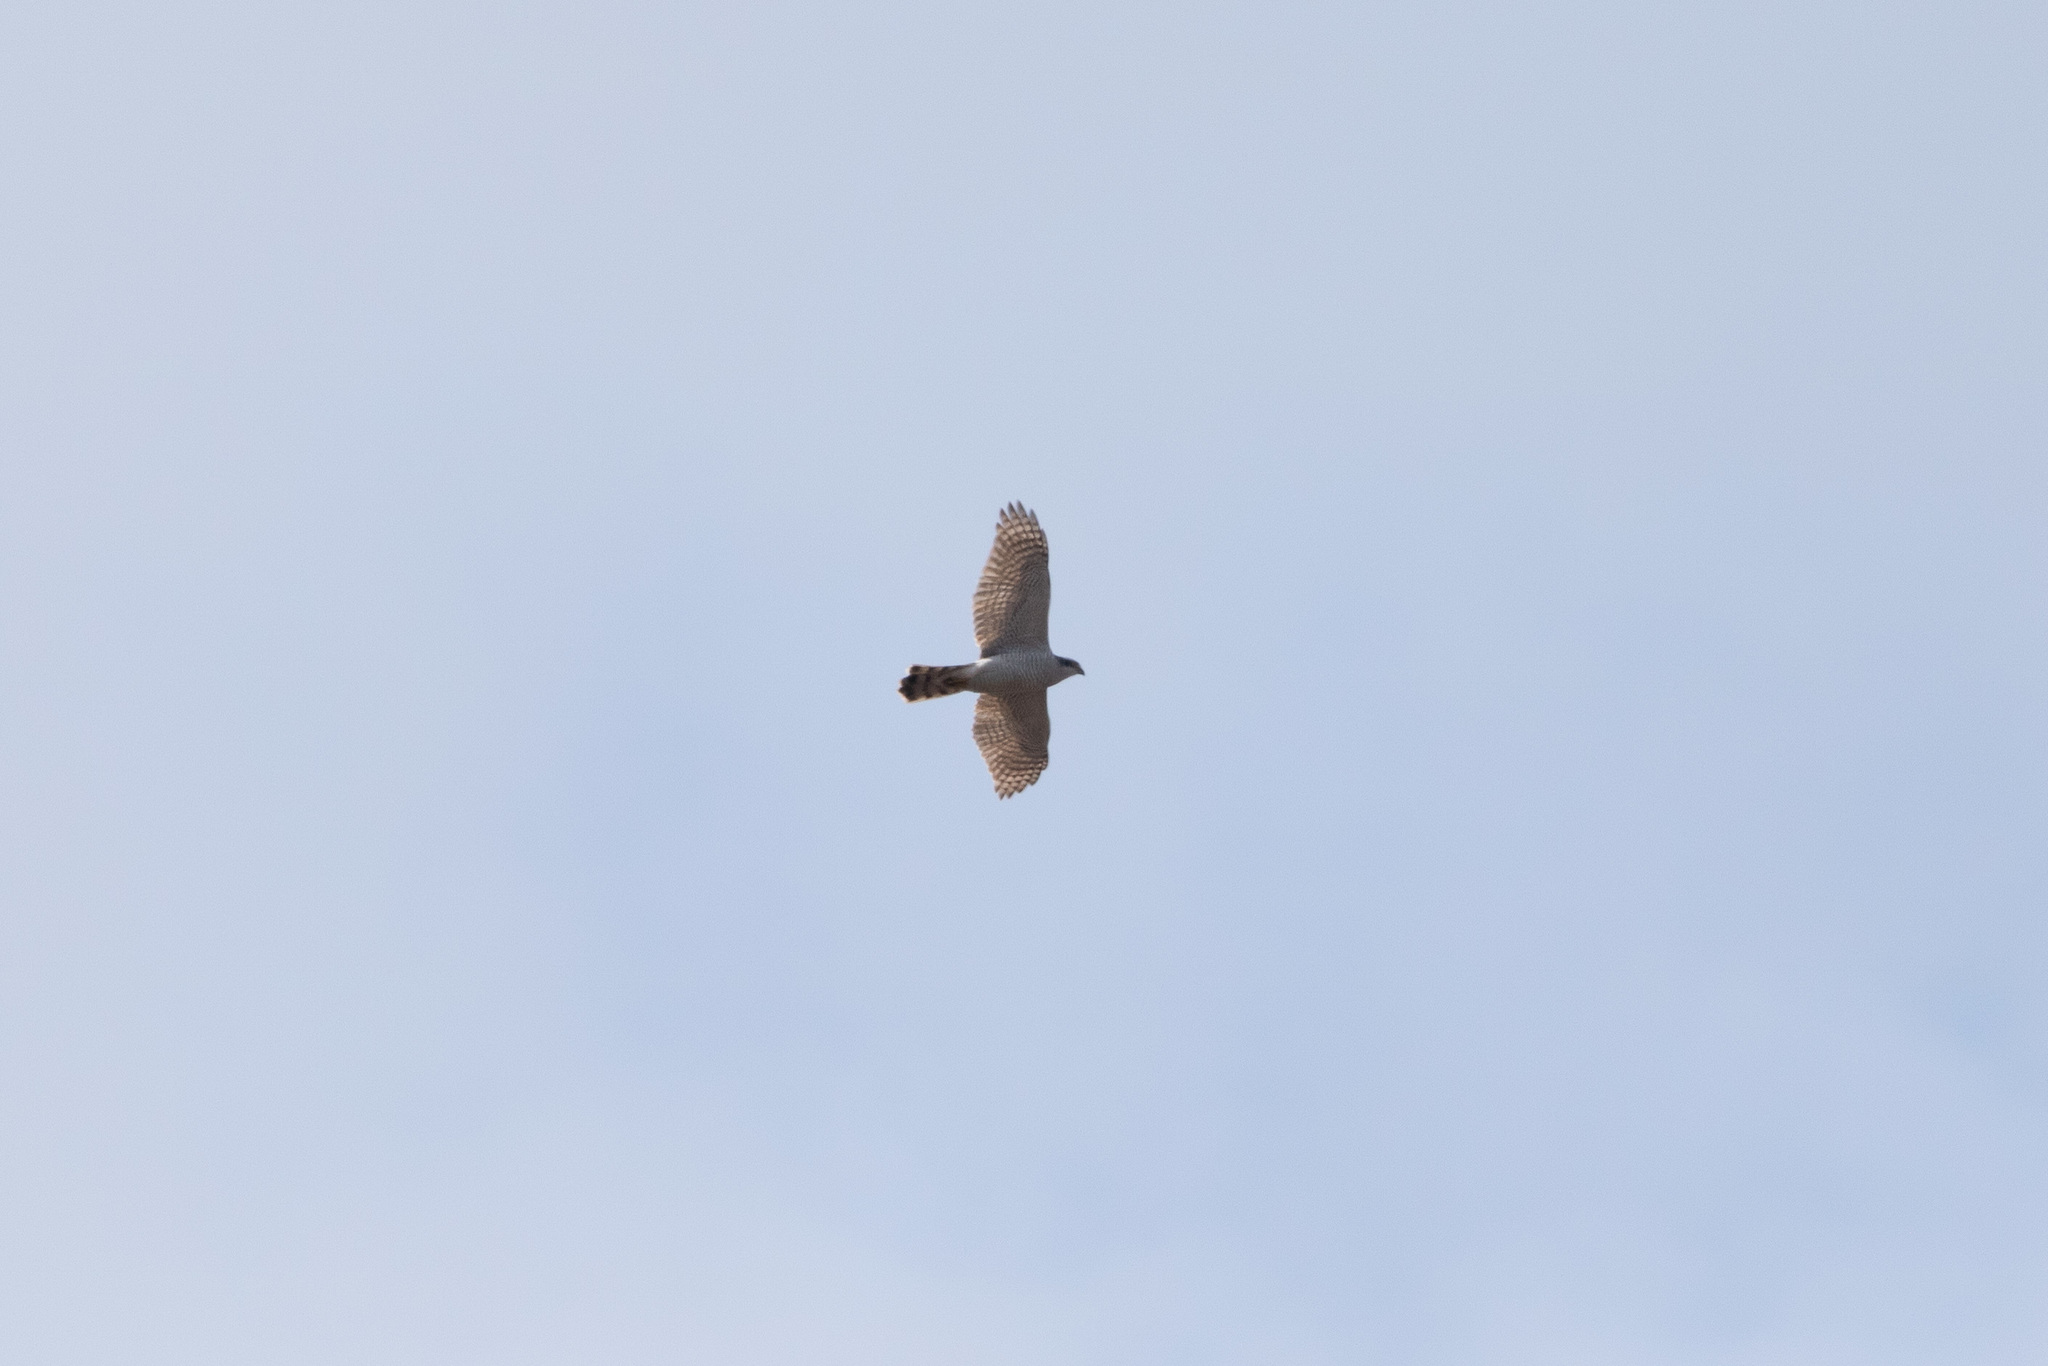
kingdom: Animalia
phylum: Chordata
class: Aves
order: Accipitriformes
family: Accipitridae
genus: Accipiter
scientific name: Accipiter gentilis
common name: Northern goshawk
